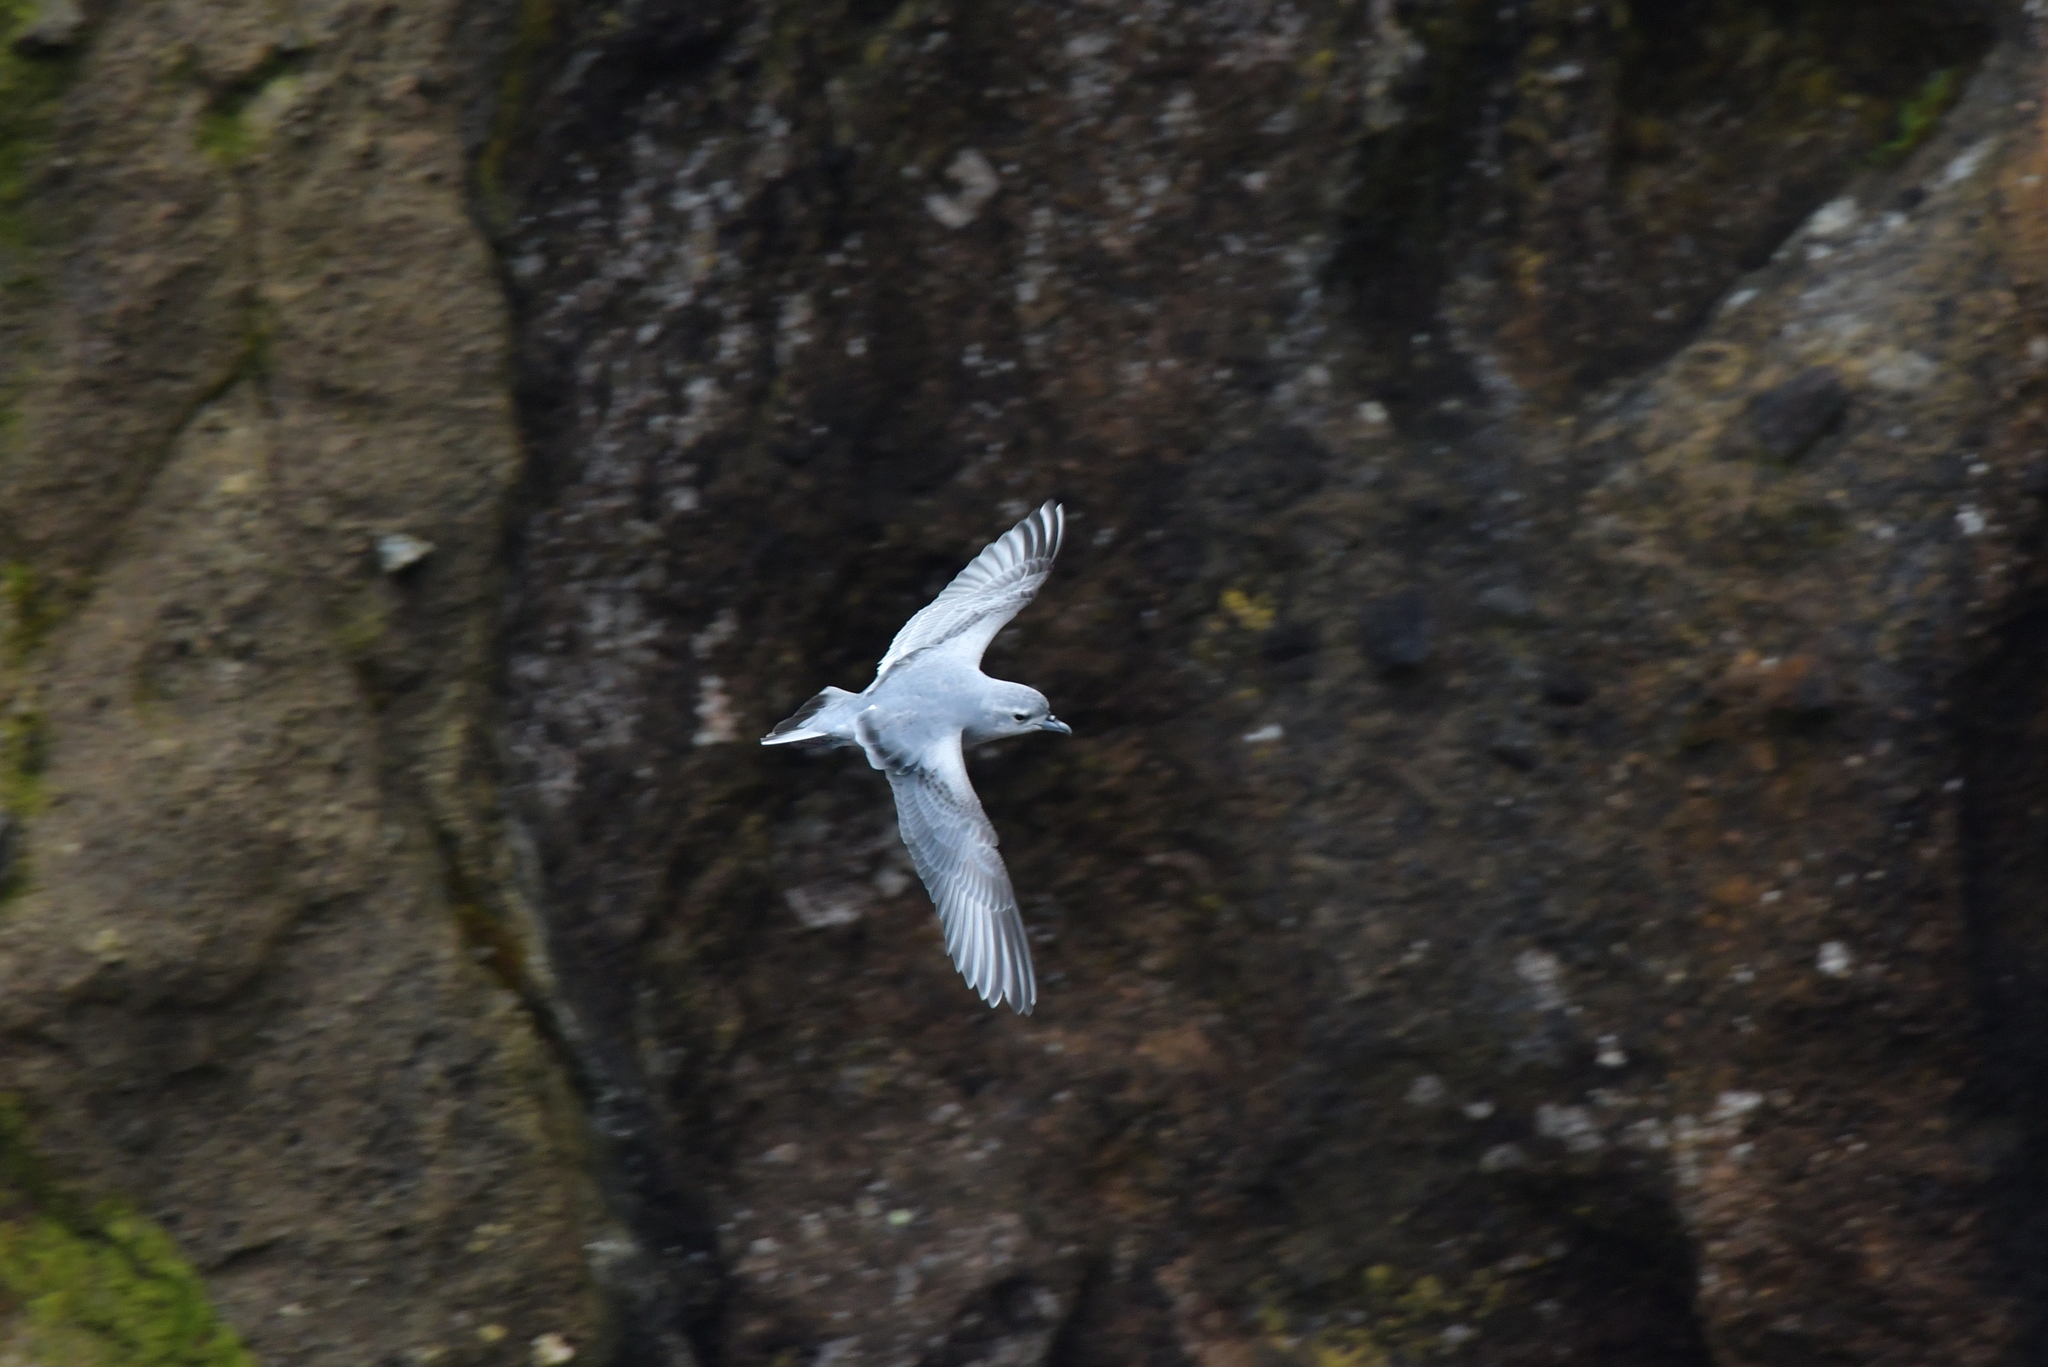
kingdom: Animalia
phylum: Chordata
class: Aves
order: Procellariiformes
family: Procellariidae
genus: Pachyptila
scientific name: Pachyptila turtur
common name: Fairy prion
